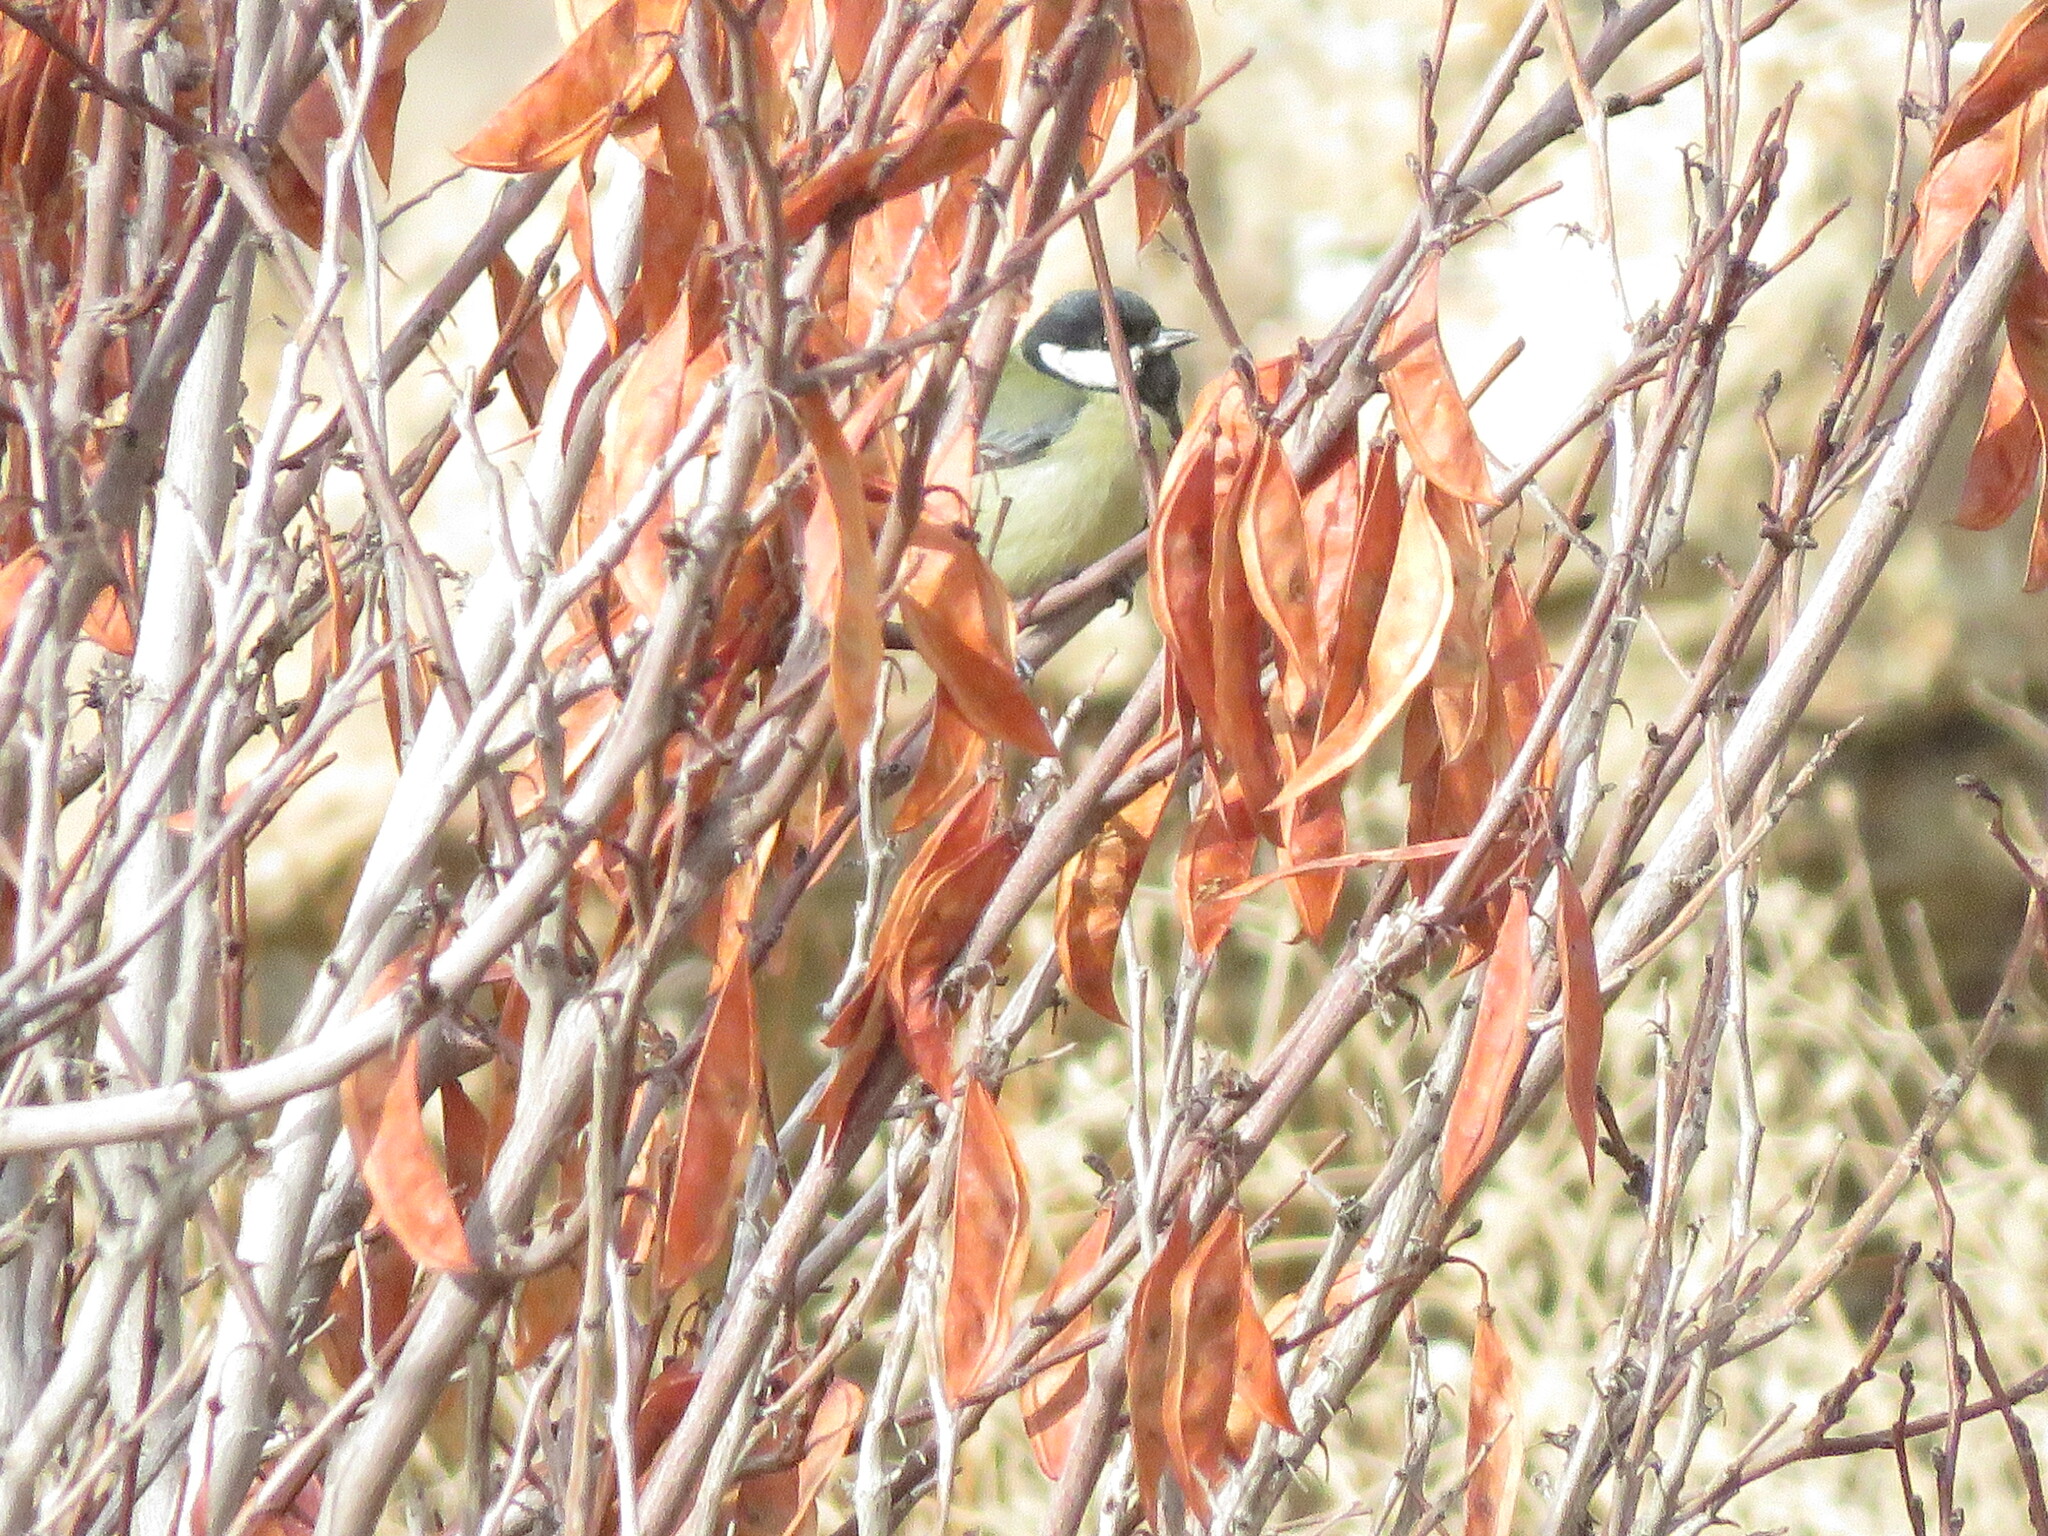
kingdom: Animalia
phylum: Chordata
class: Aves
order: Passeriformes
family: Paridae
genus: Parus
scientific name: Parus major
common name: Great tit
